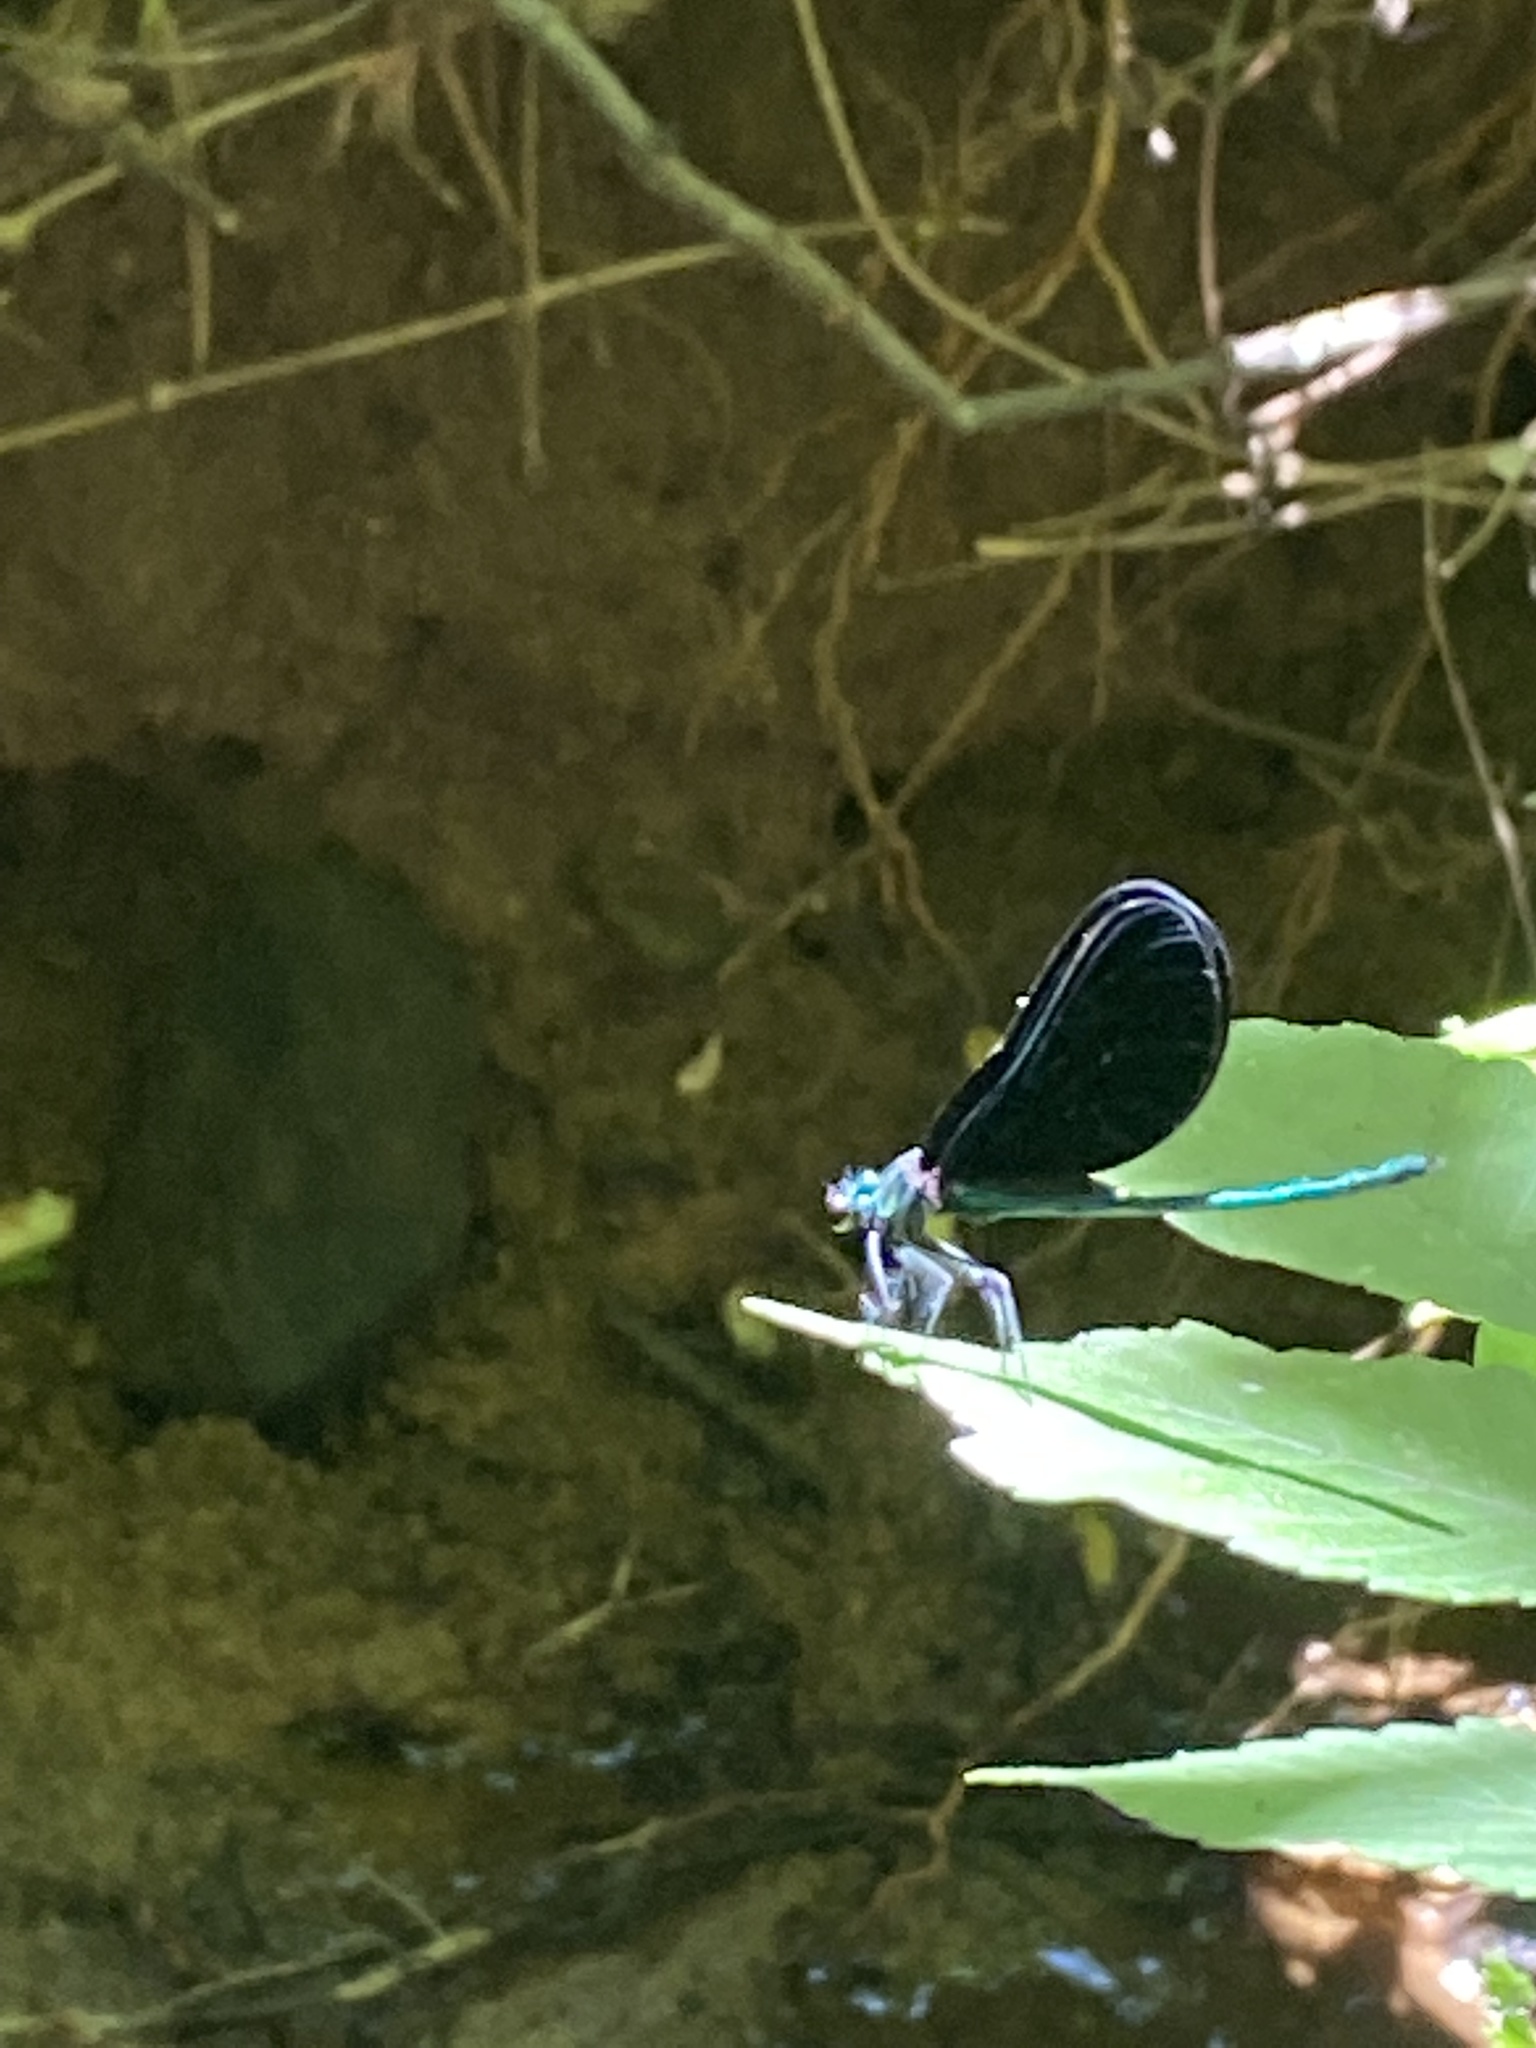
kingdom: Animalia
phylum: Arthropoda
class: Insecta
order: Odonata
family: Calopterygidae
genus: Calopteryx
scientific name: Calopteryx maculata
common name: Ebony jewelwing
